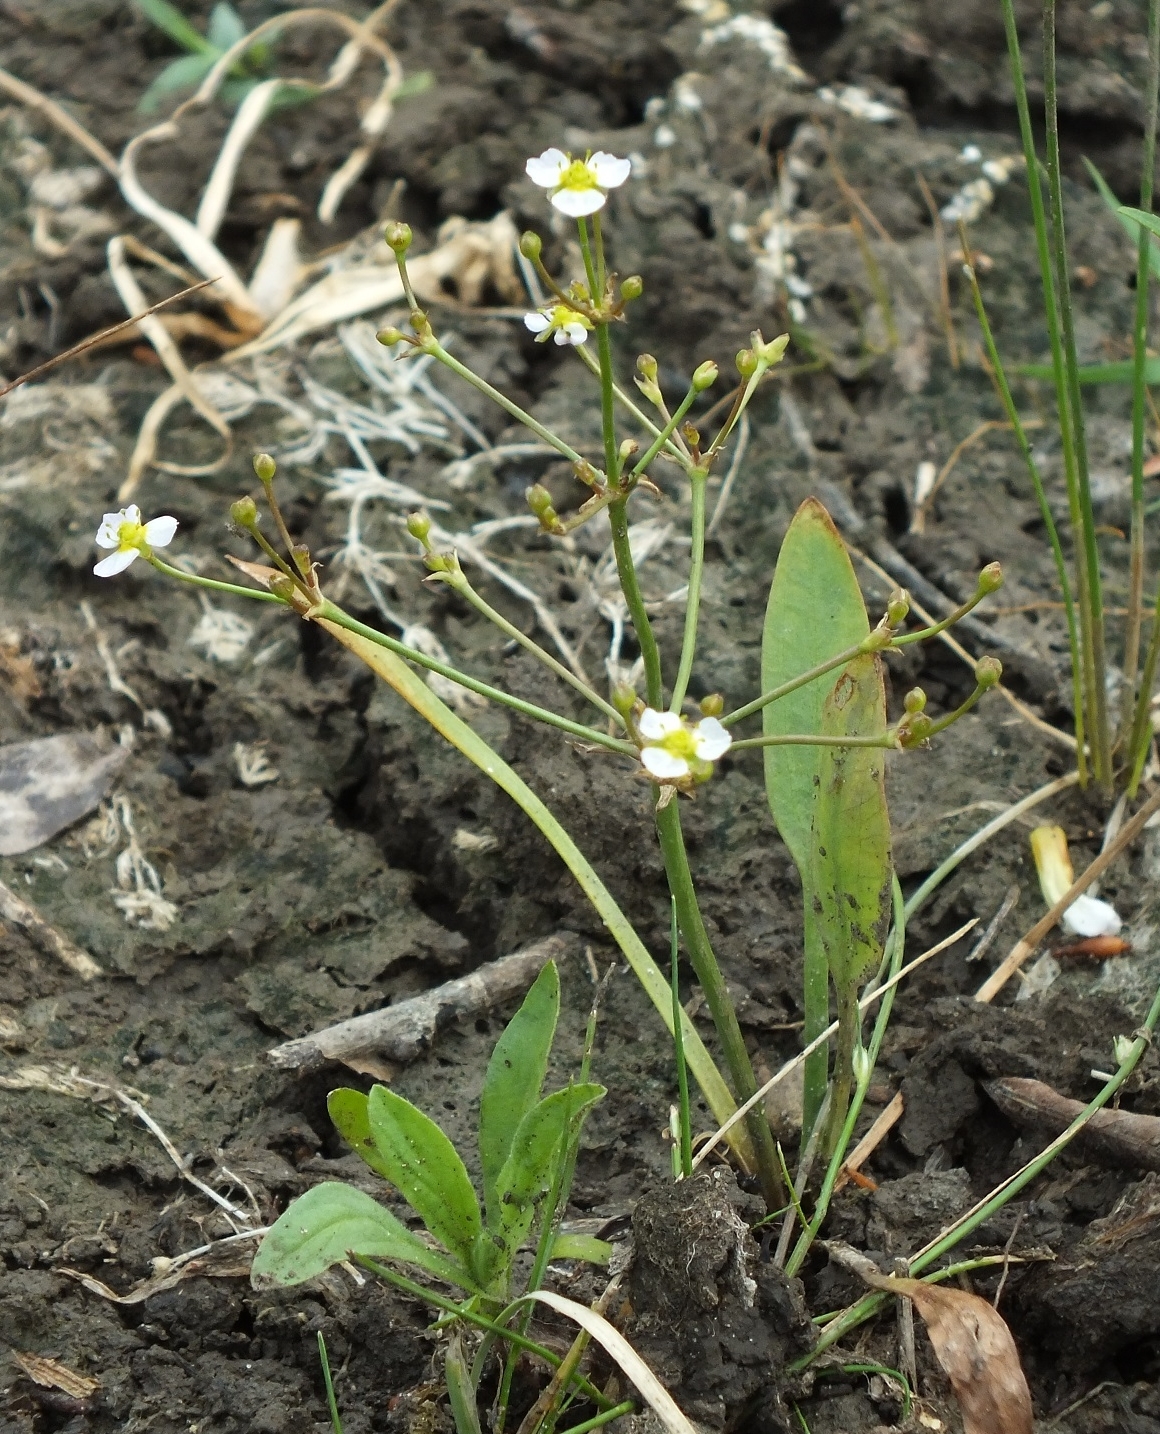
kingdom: Plantae
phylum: Tracheophyta
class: Liliopsida
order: Alismatales
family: Alismataceae
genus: Alisma
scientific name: Alisma gramineum
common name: Ribbon-leaved water-plantain
